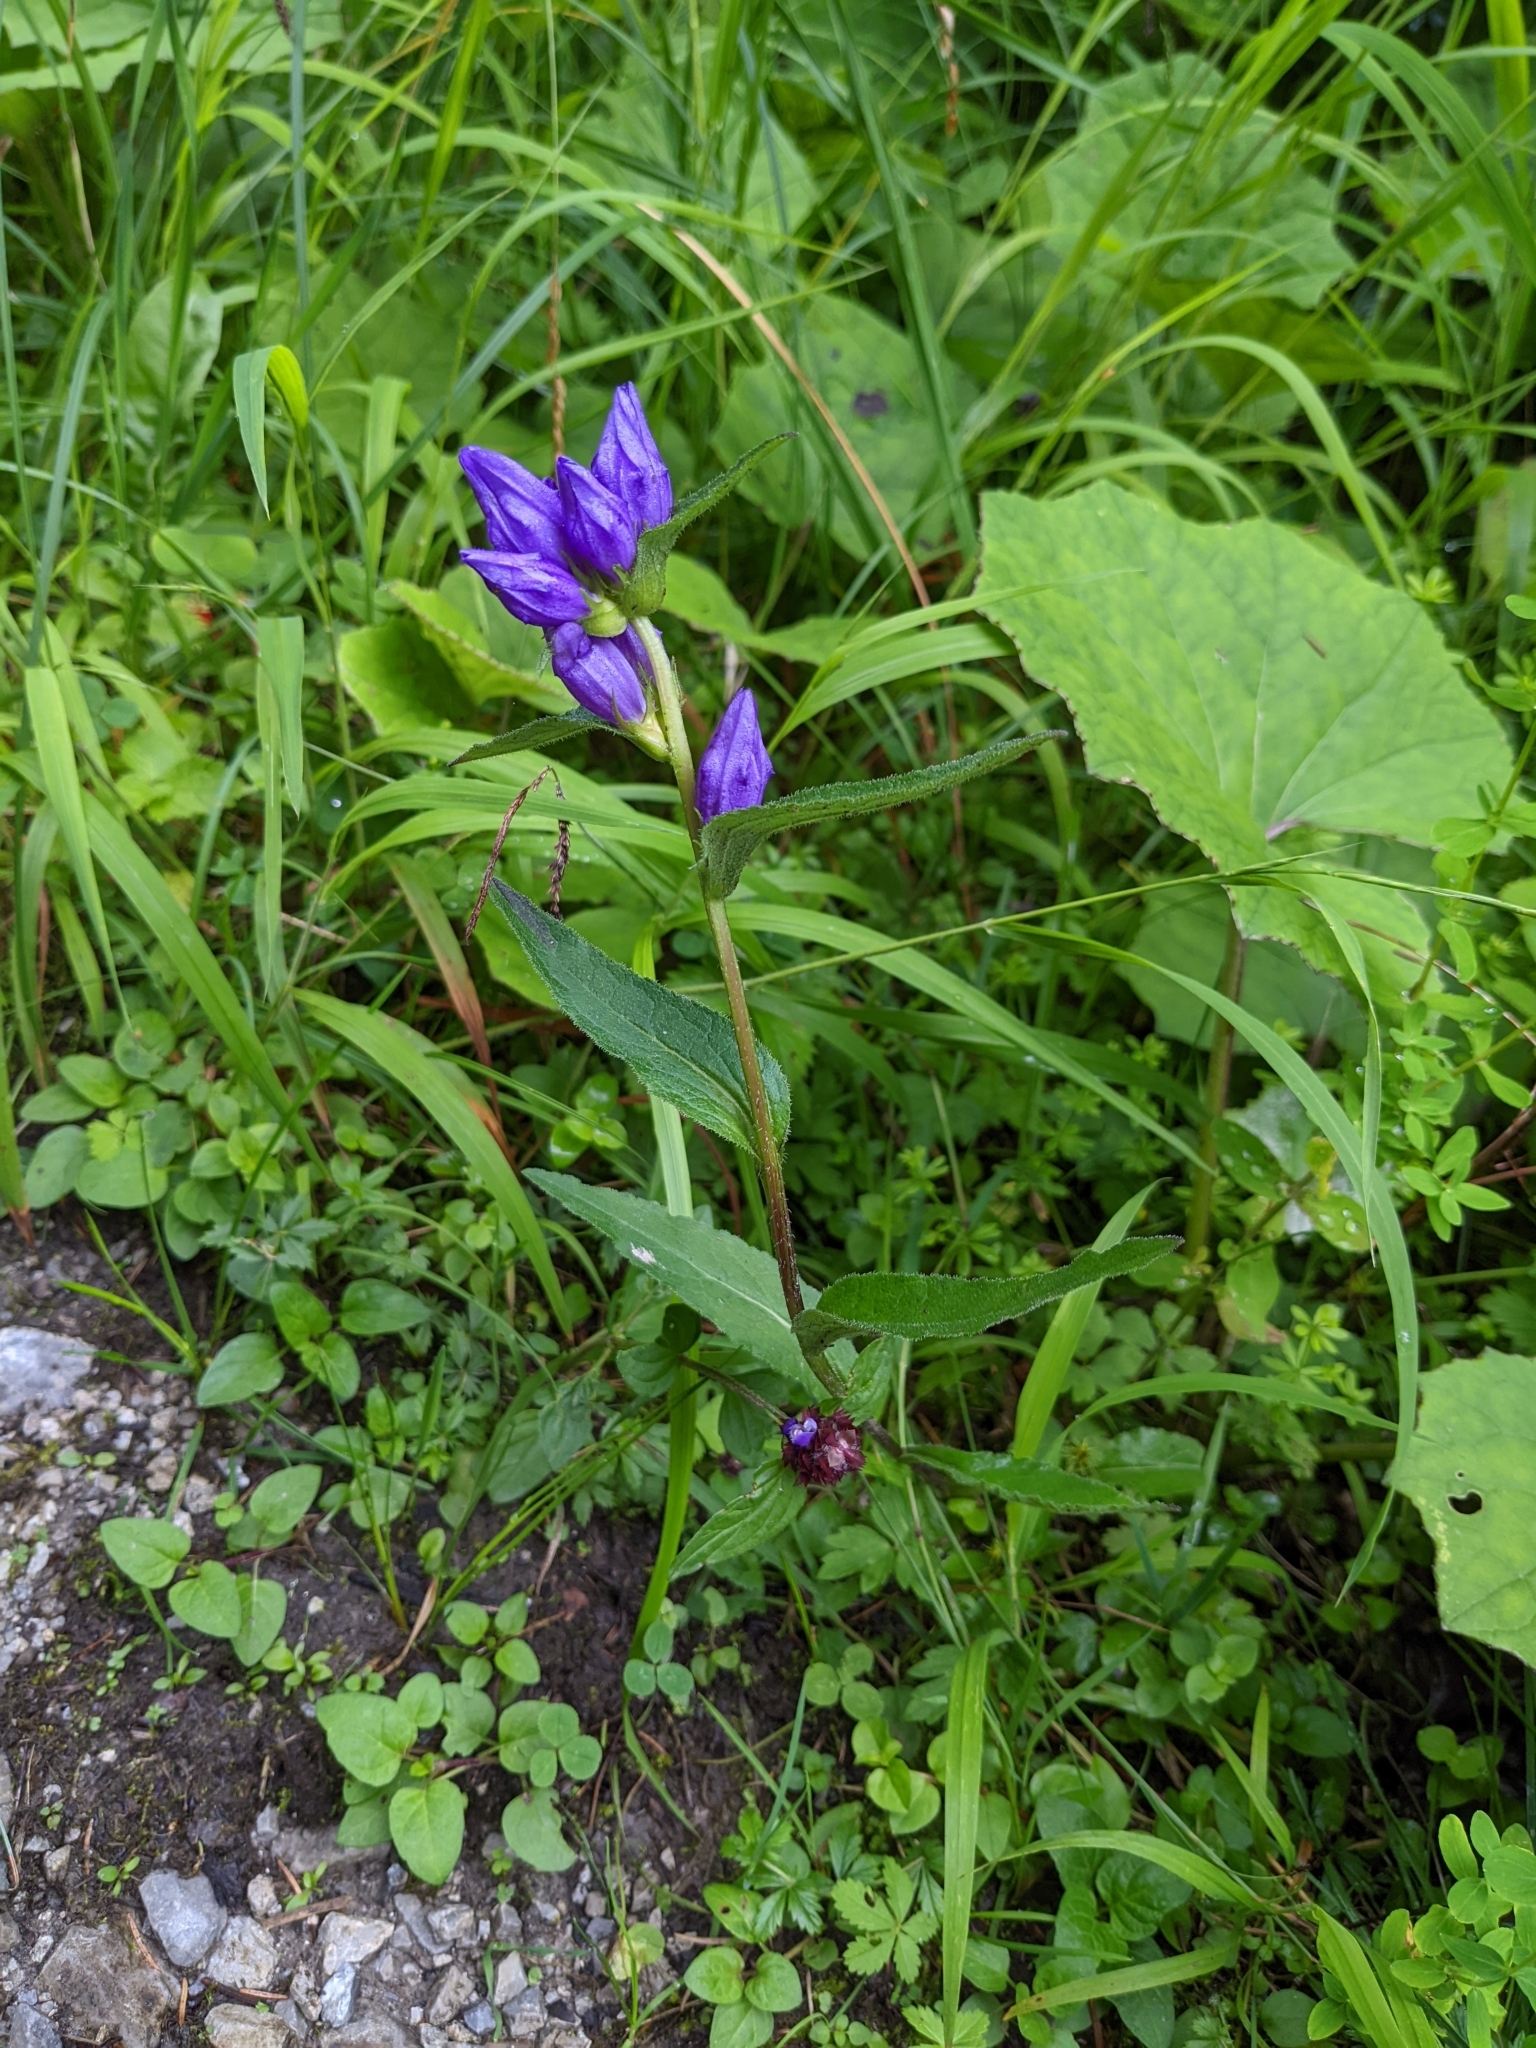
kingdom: Plantae
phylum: Tracheophyta
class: Magnoliopsida
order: Asterales
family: Campanulaceae
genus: Campanula
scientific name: Campanula glomerata
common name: Clustered bellflower
